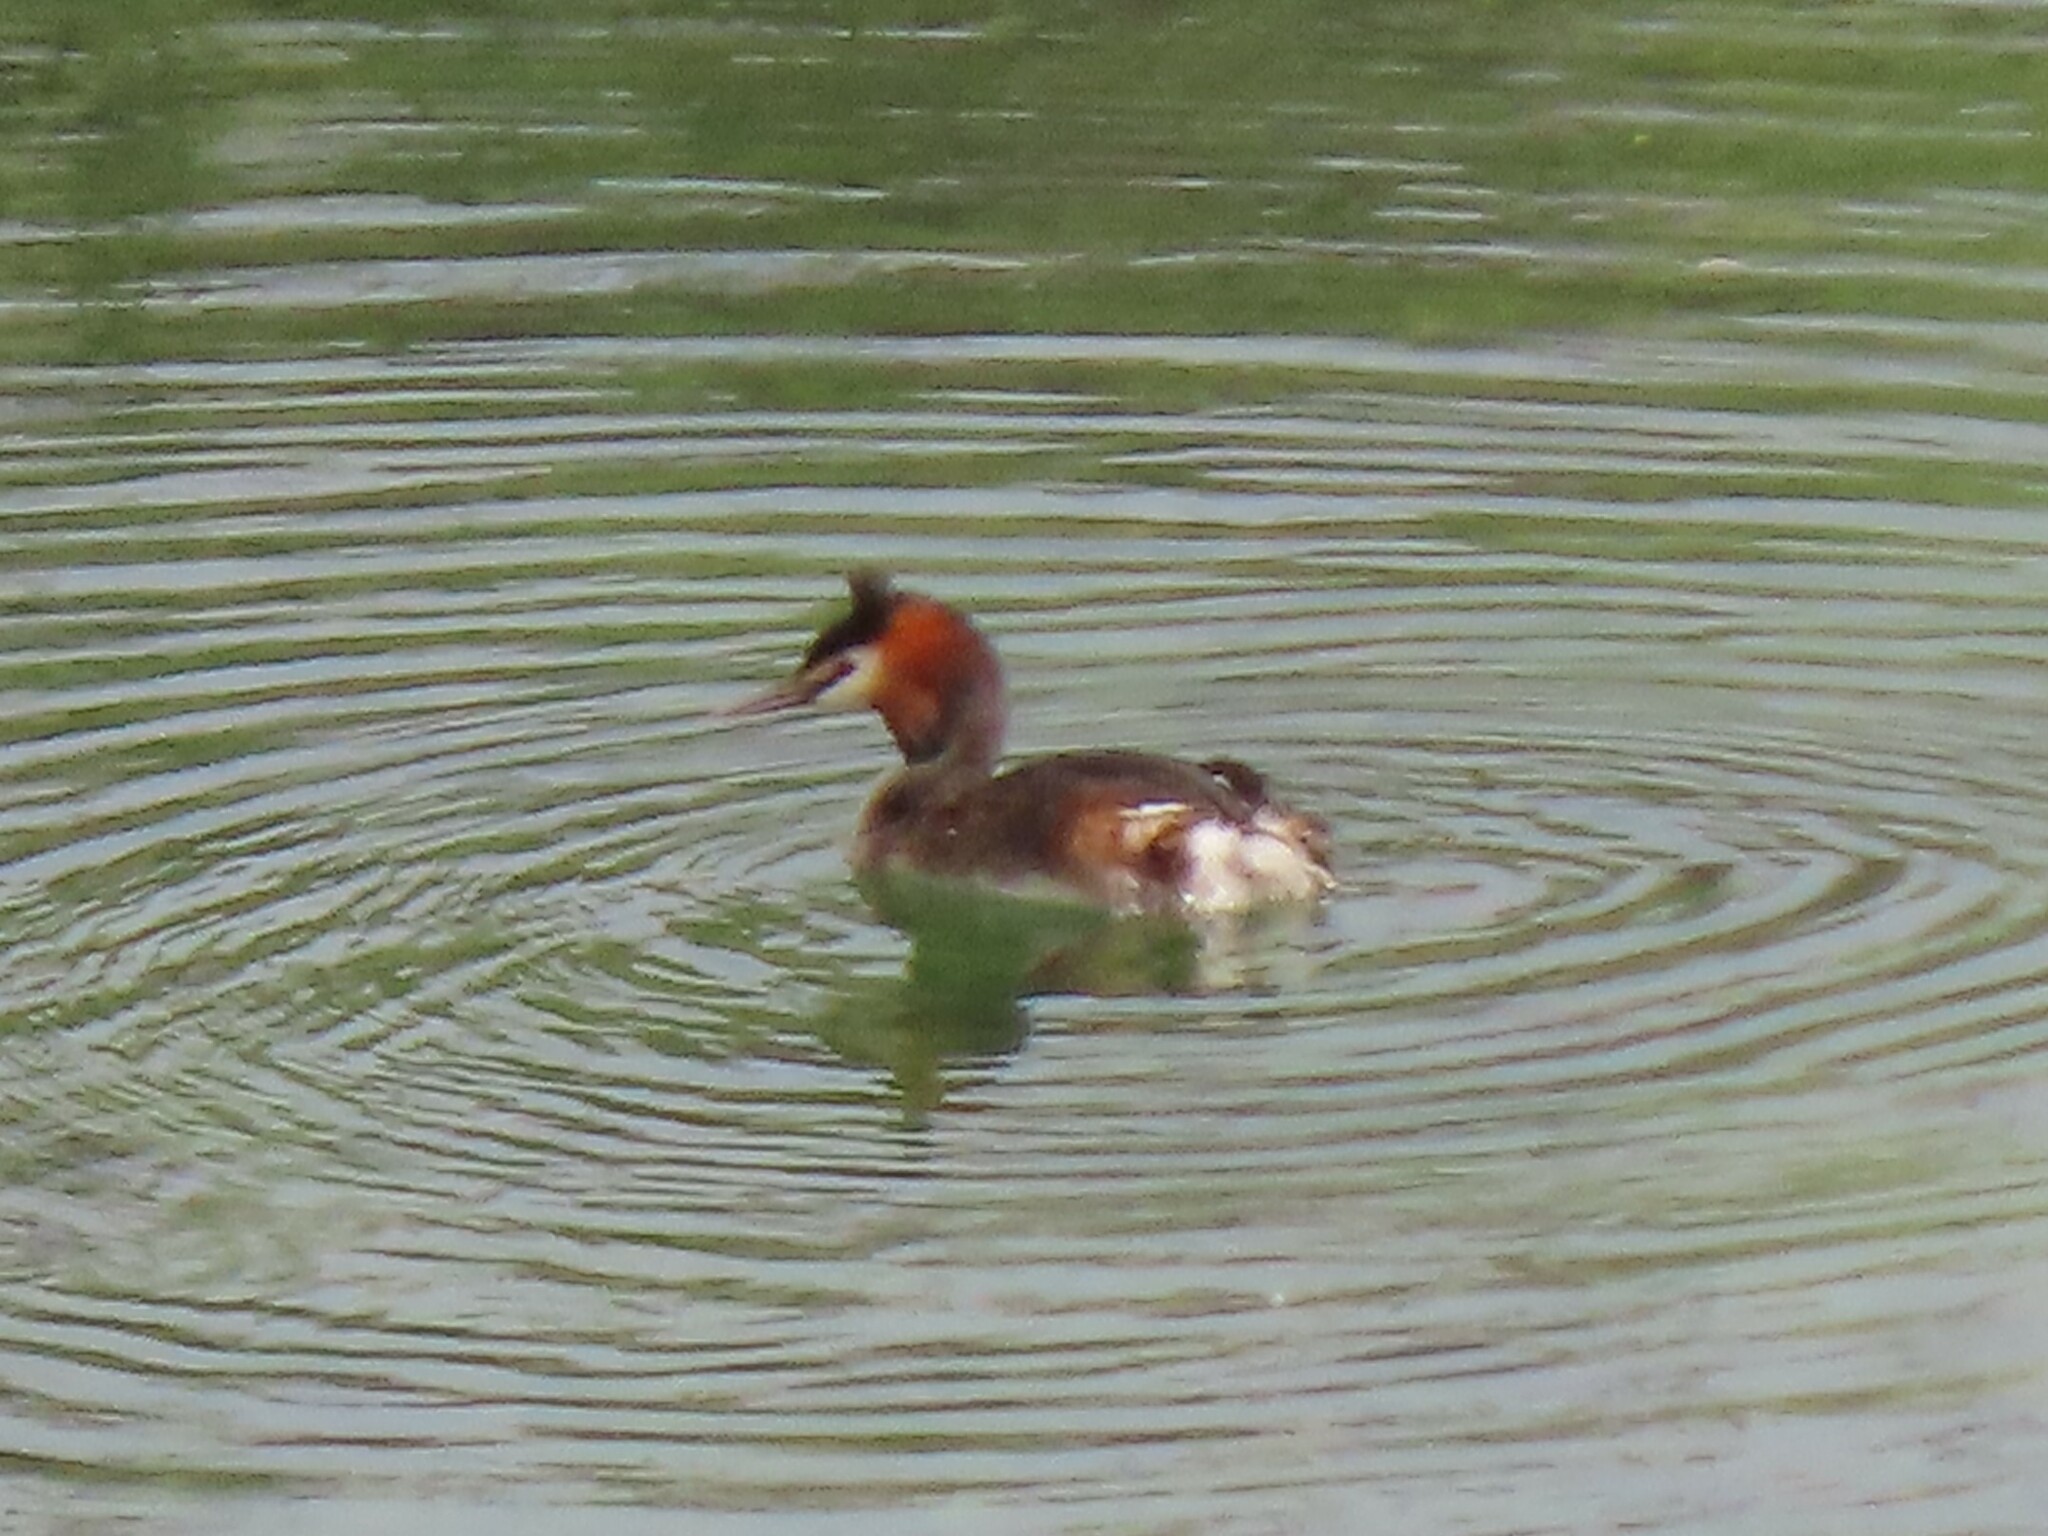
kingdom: Animalia
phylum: Chordata
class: Aves
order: Podicipediformes
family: Podicipedidae
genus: Podiceps
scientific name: Podiceps cristatus
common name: Great crested grebe
